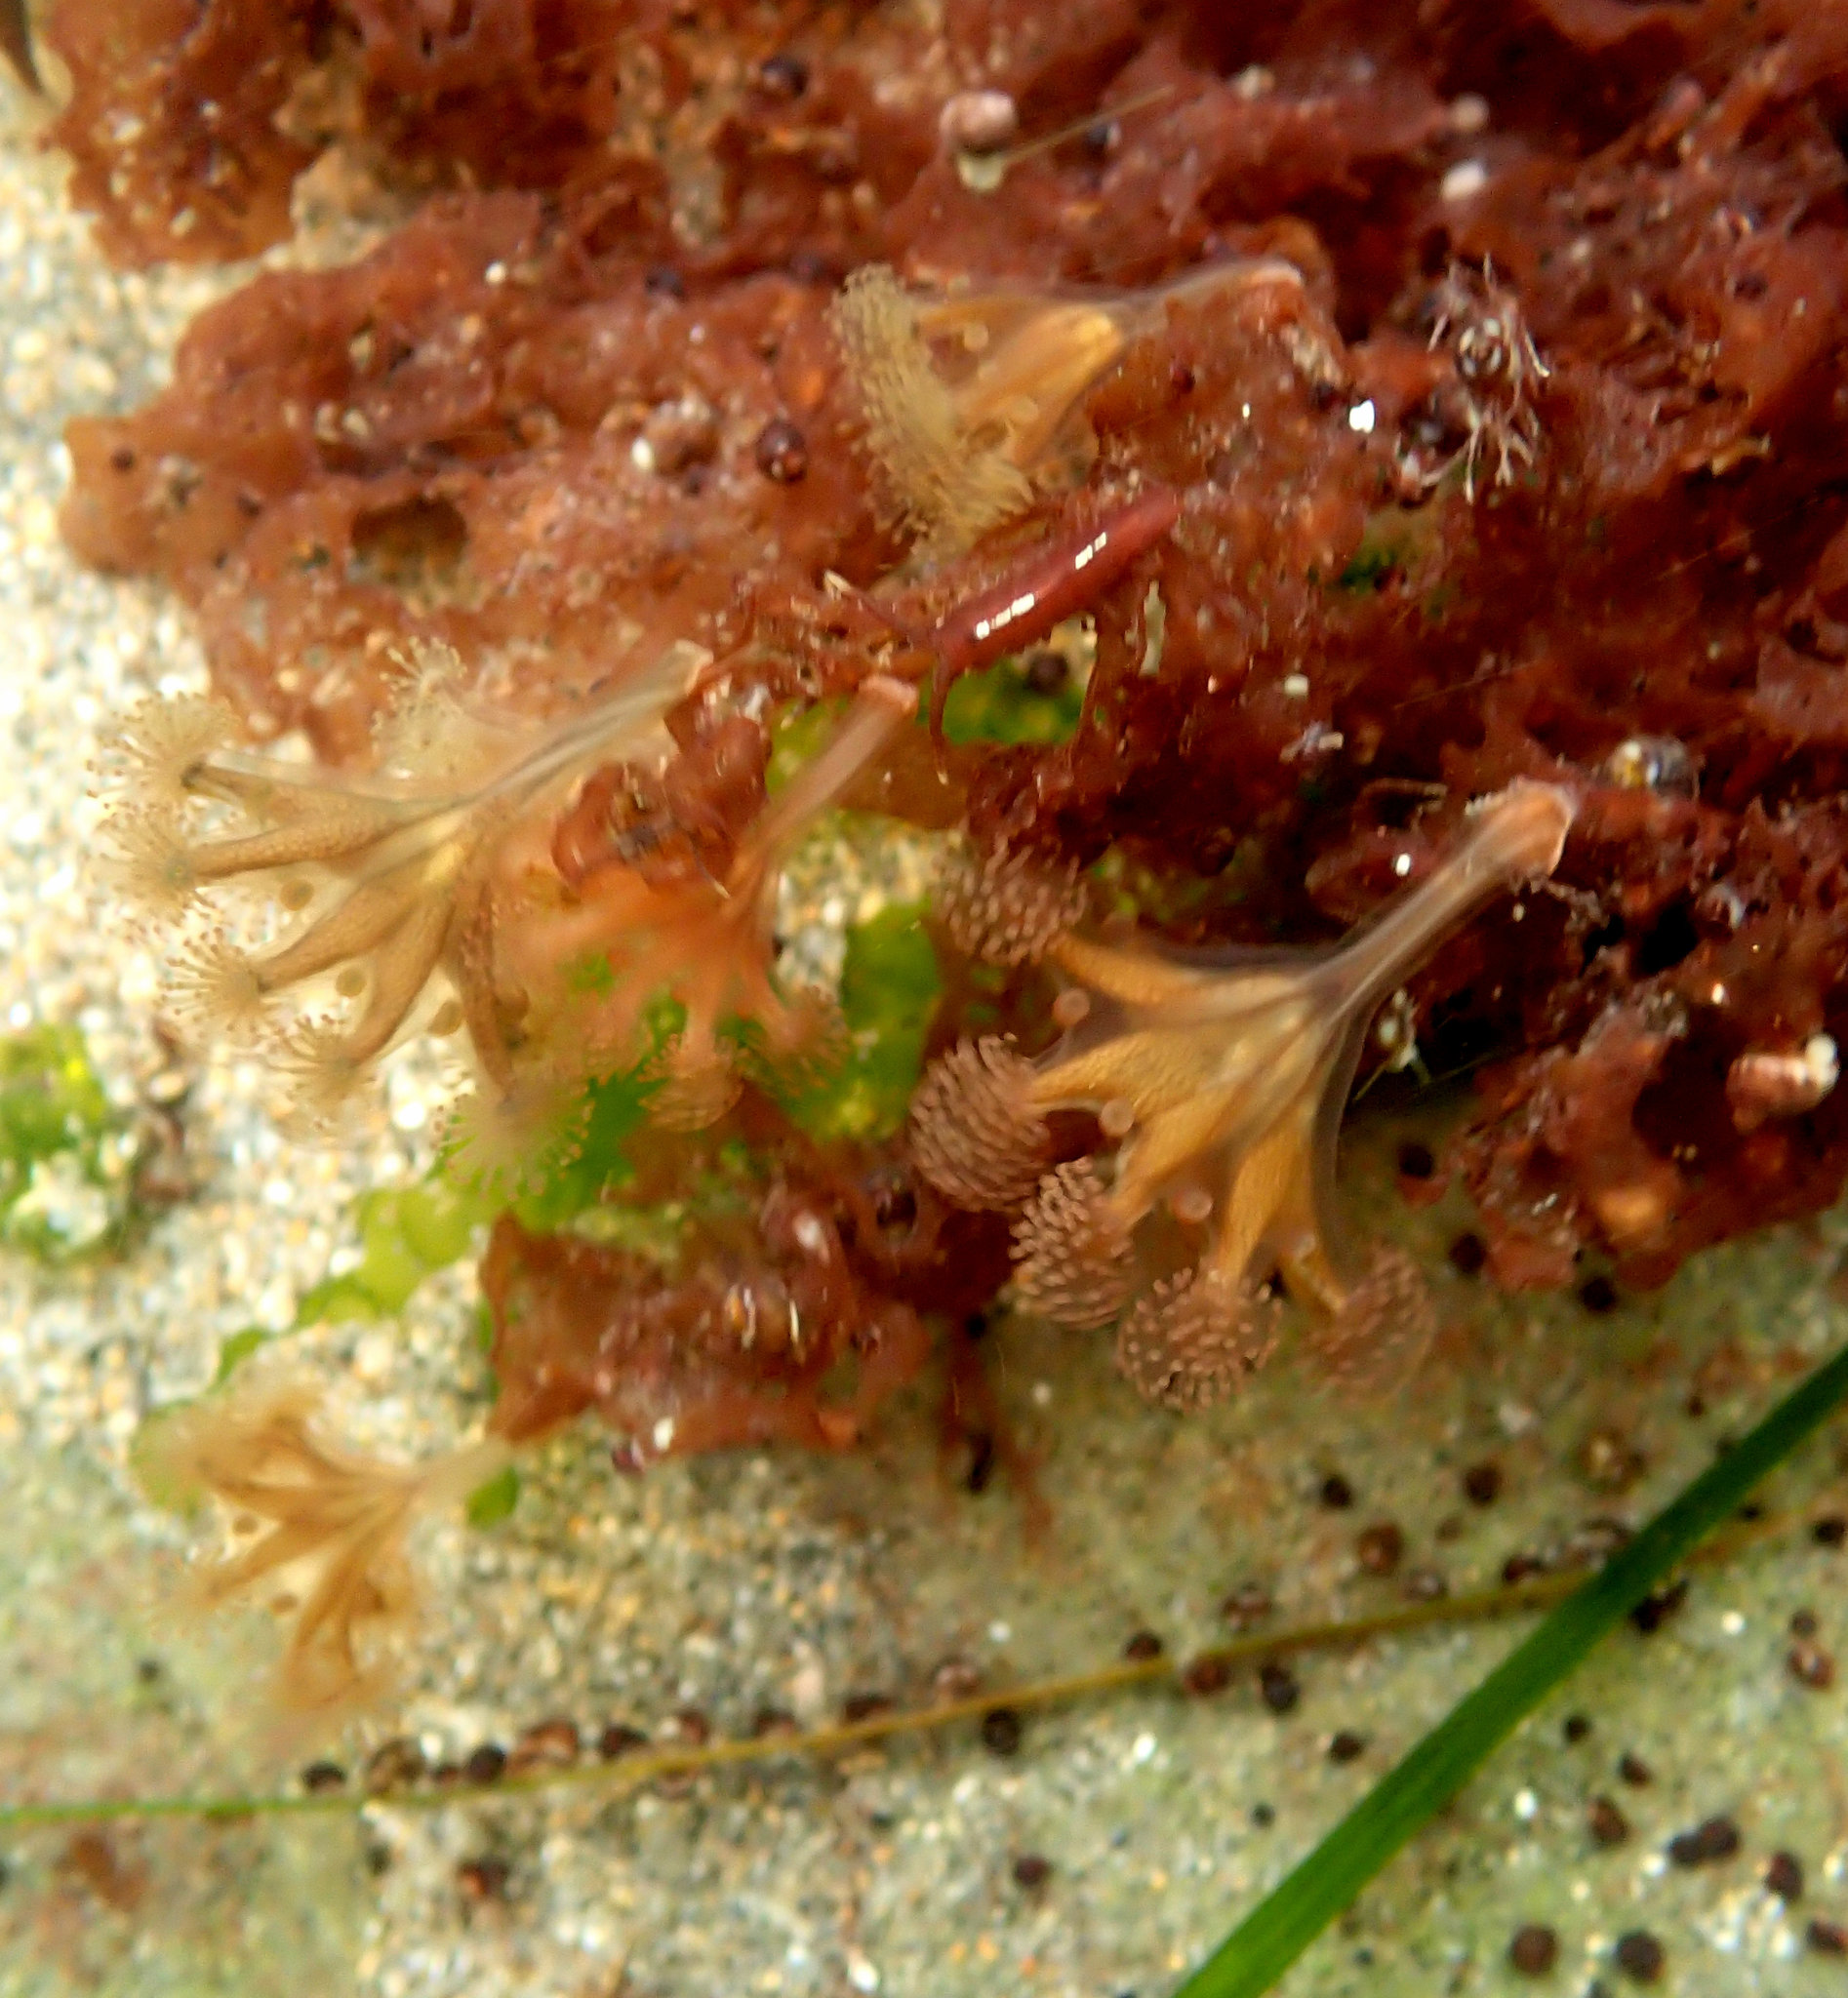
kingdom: Animalia
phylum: Cnidaria
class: Staurozoa
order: Stauromedusae
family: Haliclystidae
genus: Haliclystus
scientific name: Haliclystus sanjuanensis
